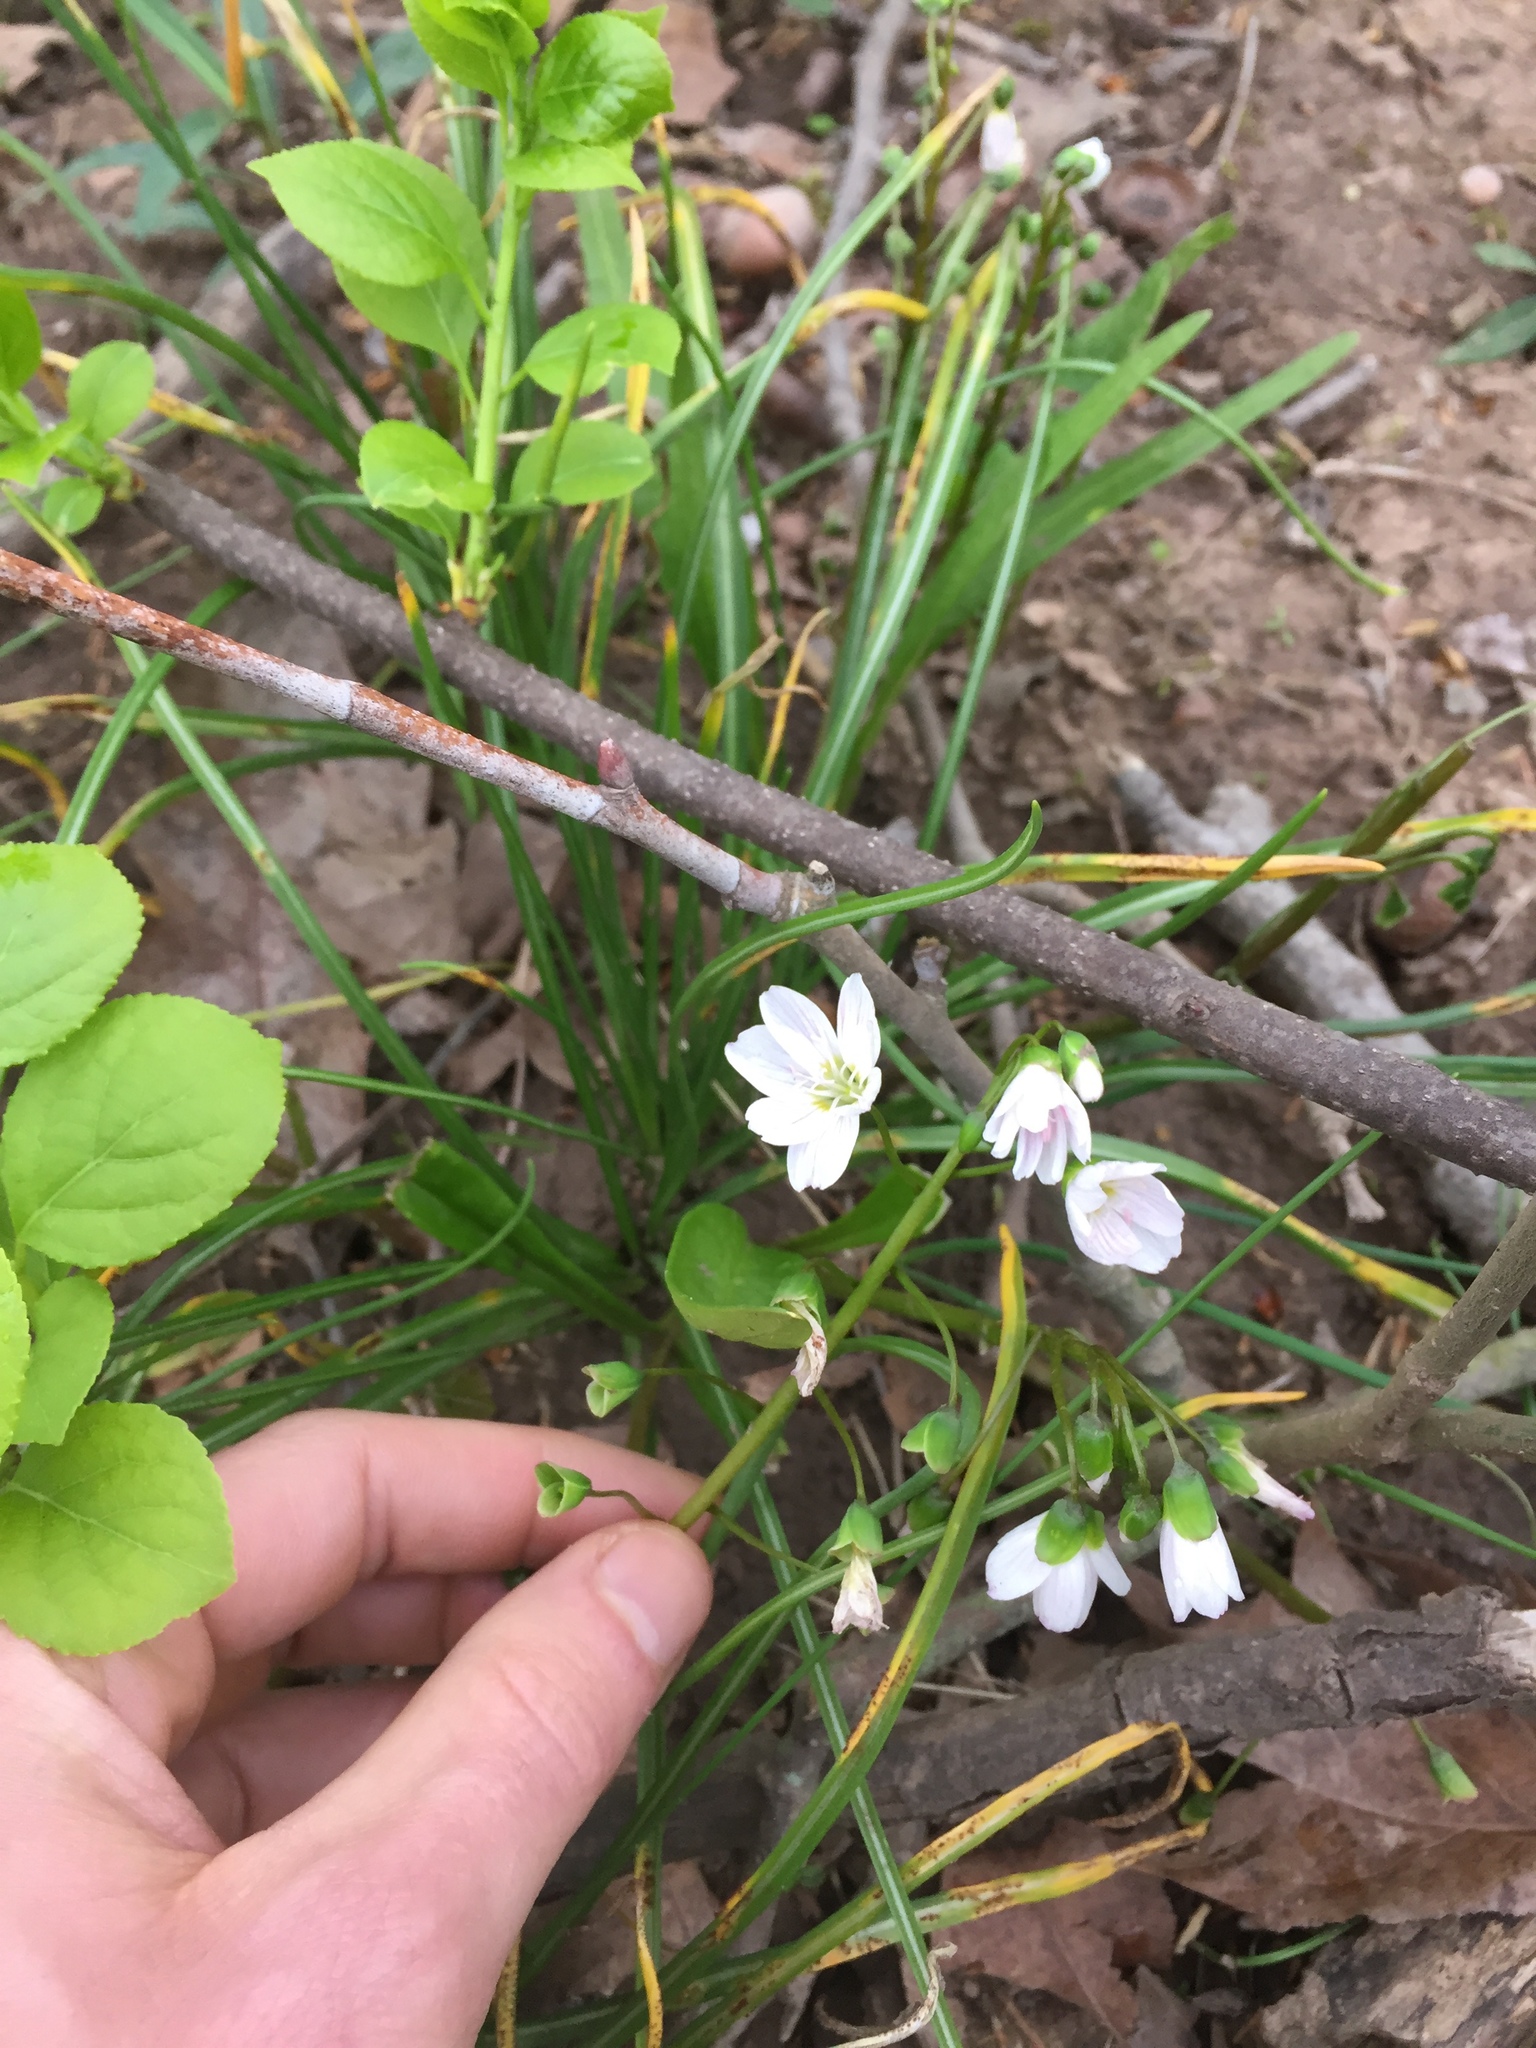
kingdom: Plantae
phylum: Tracheophyta
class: Magnoliopsida
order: Caryophyllales
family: Montiaceae
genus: Claytonia
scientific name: Claytonia virginica
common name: Virginia springbeauty
